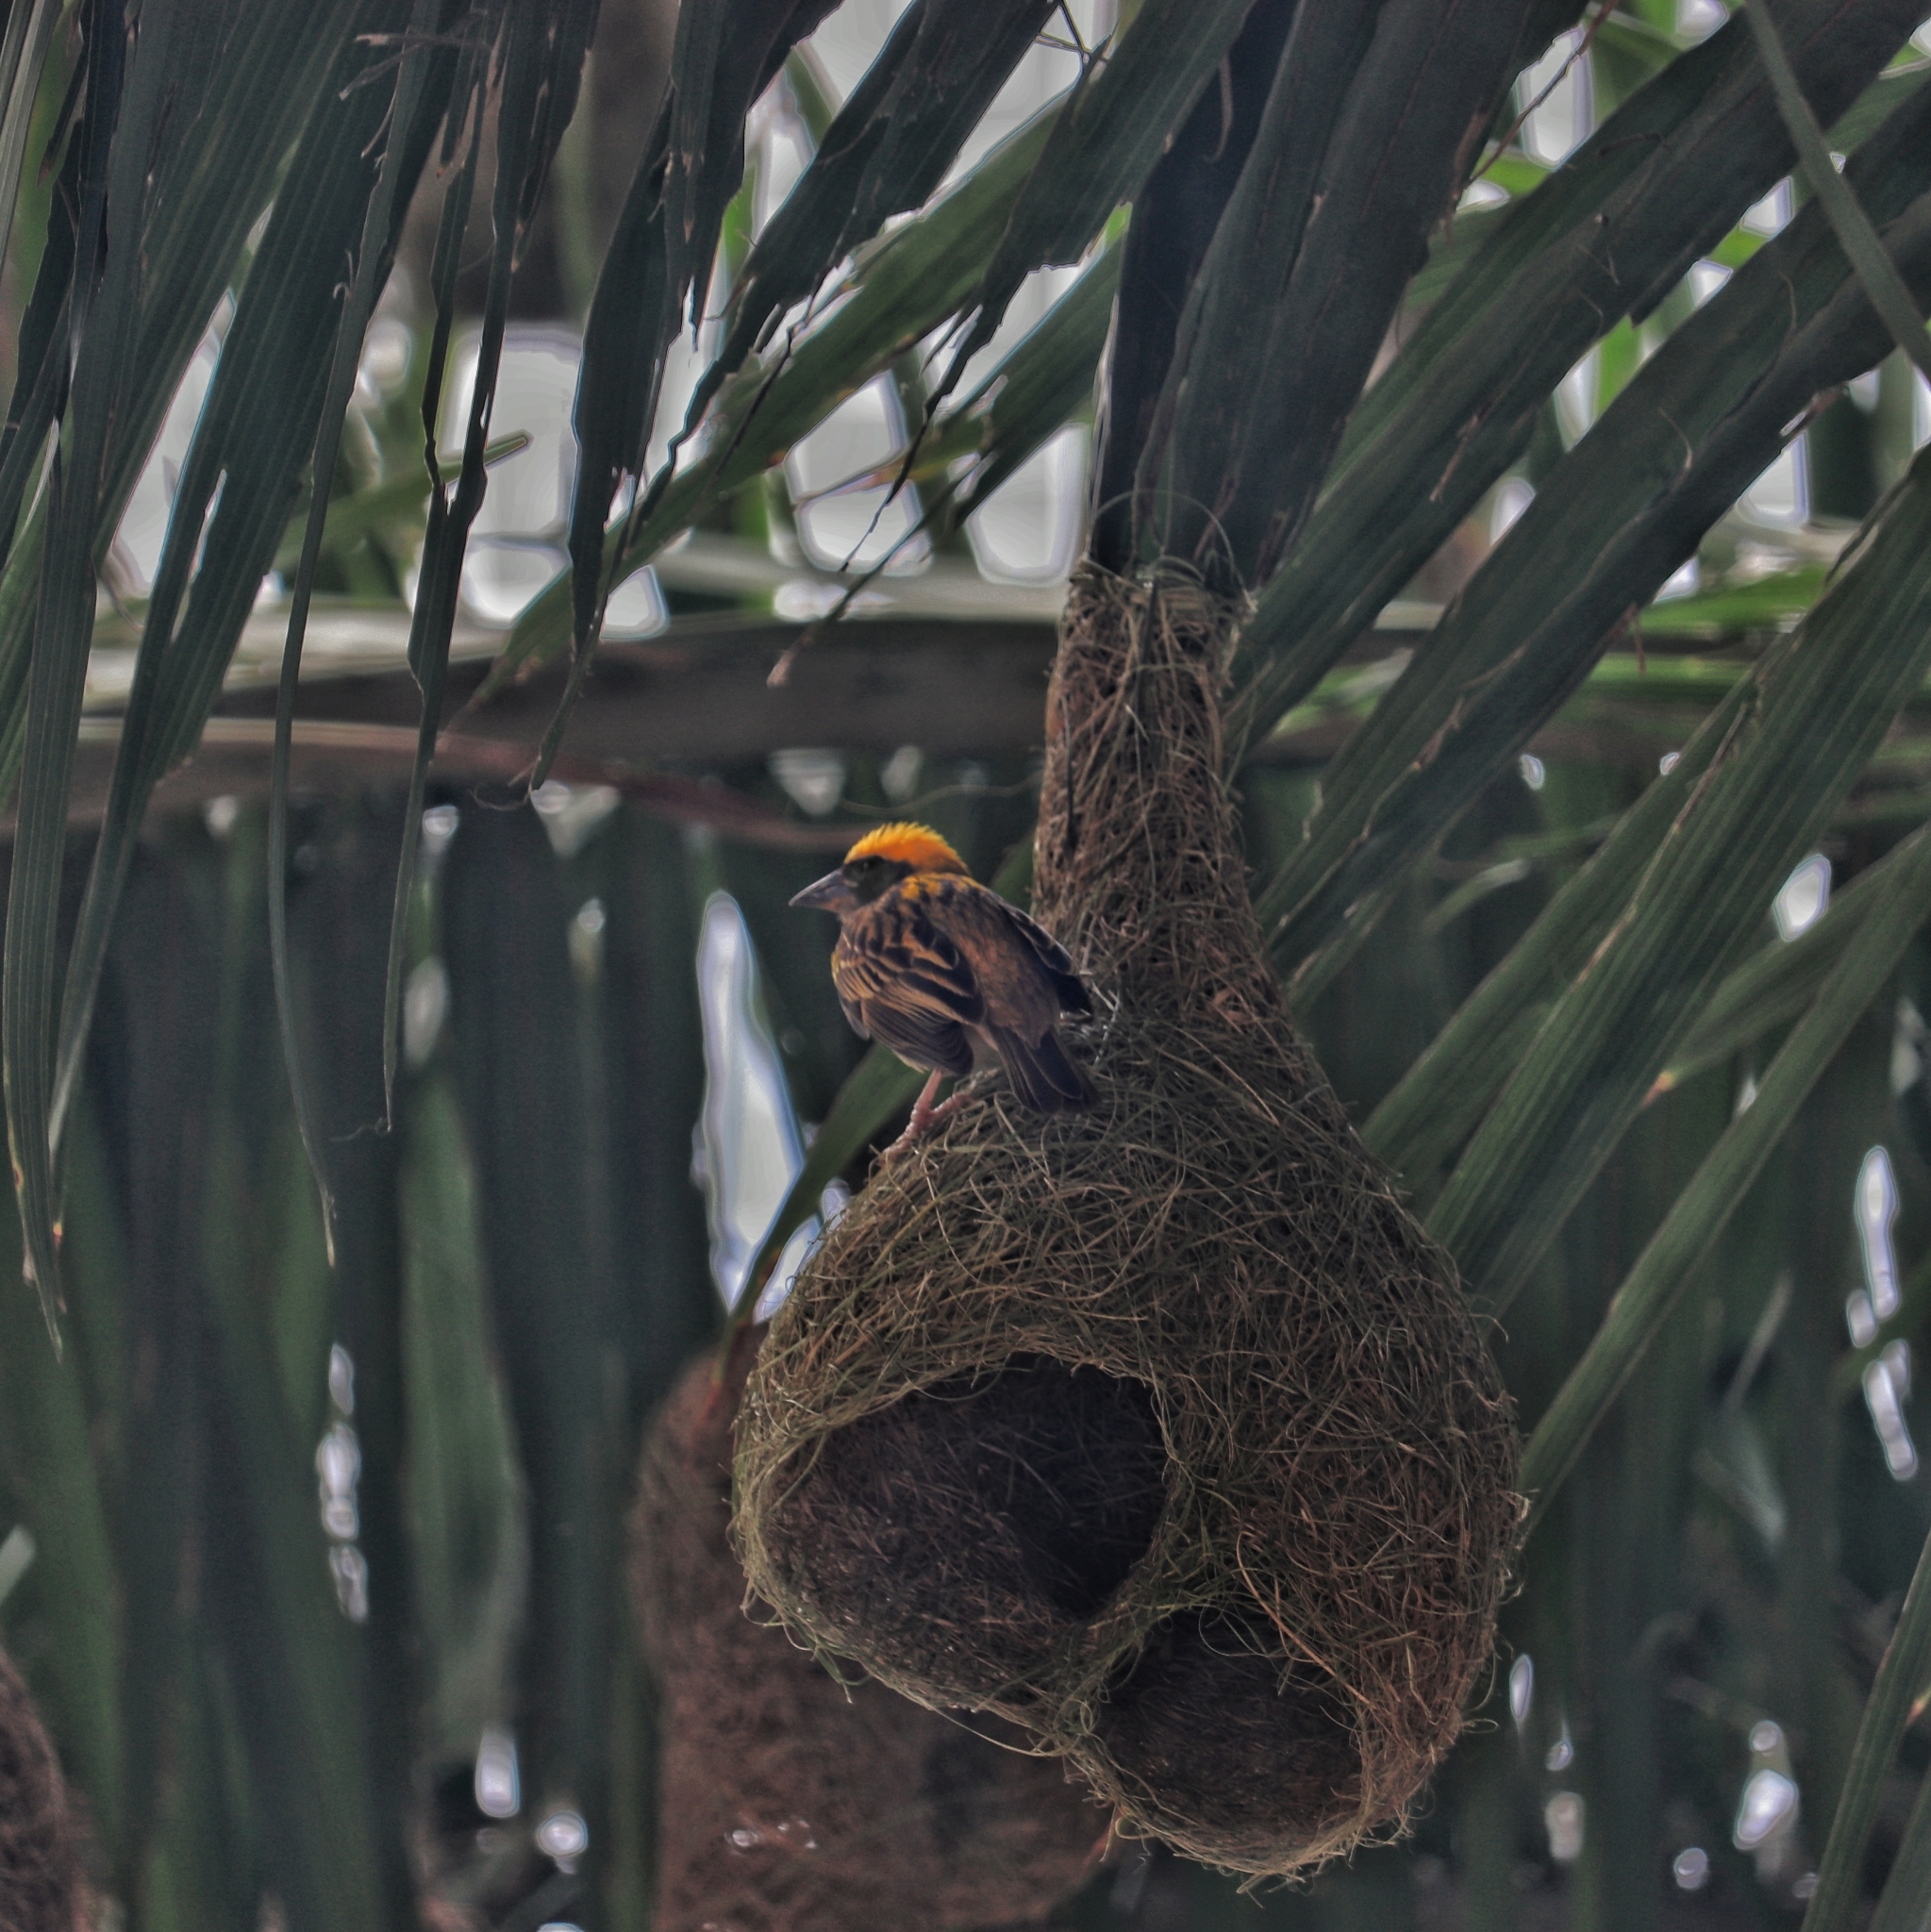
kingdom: Animalia
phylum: Chordata
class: Aves
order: Passeriformes
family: Ploceidae
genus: Ploceus
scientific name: Ploceus philippinus
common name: Baya weaver
